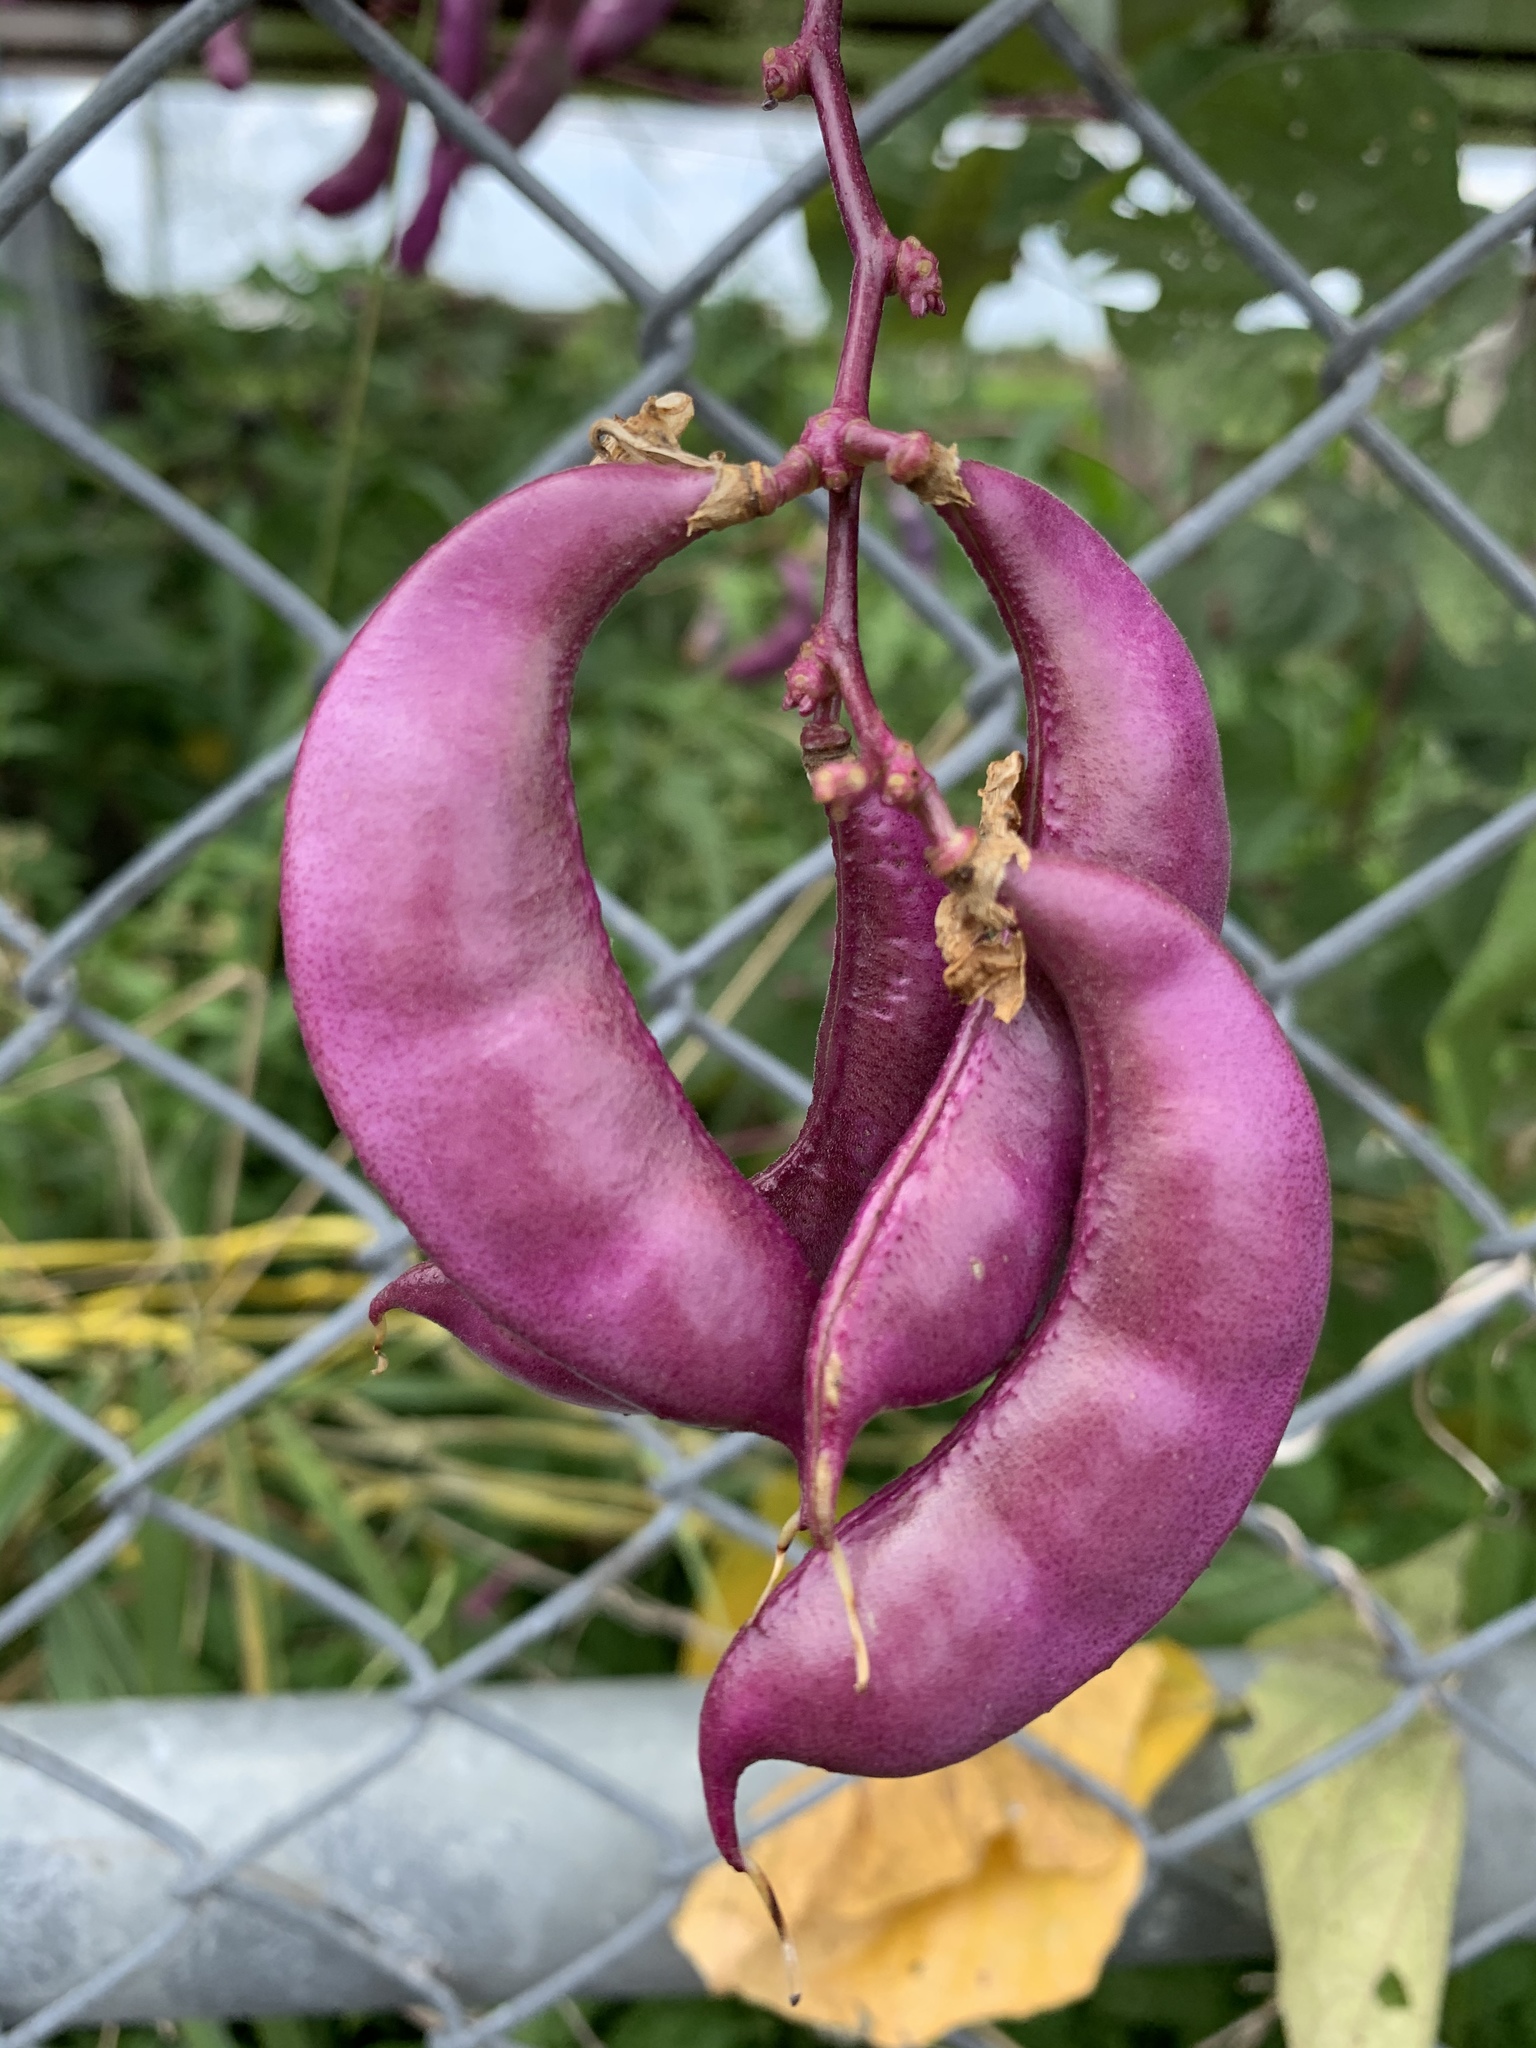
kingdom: Plantae
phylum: Tracheophyta
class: Magnoliopsida
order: Fabales
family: Fabaceae
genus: Lablab
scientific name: Lablab purpureus
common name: Lablab-bean
